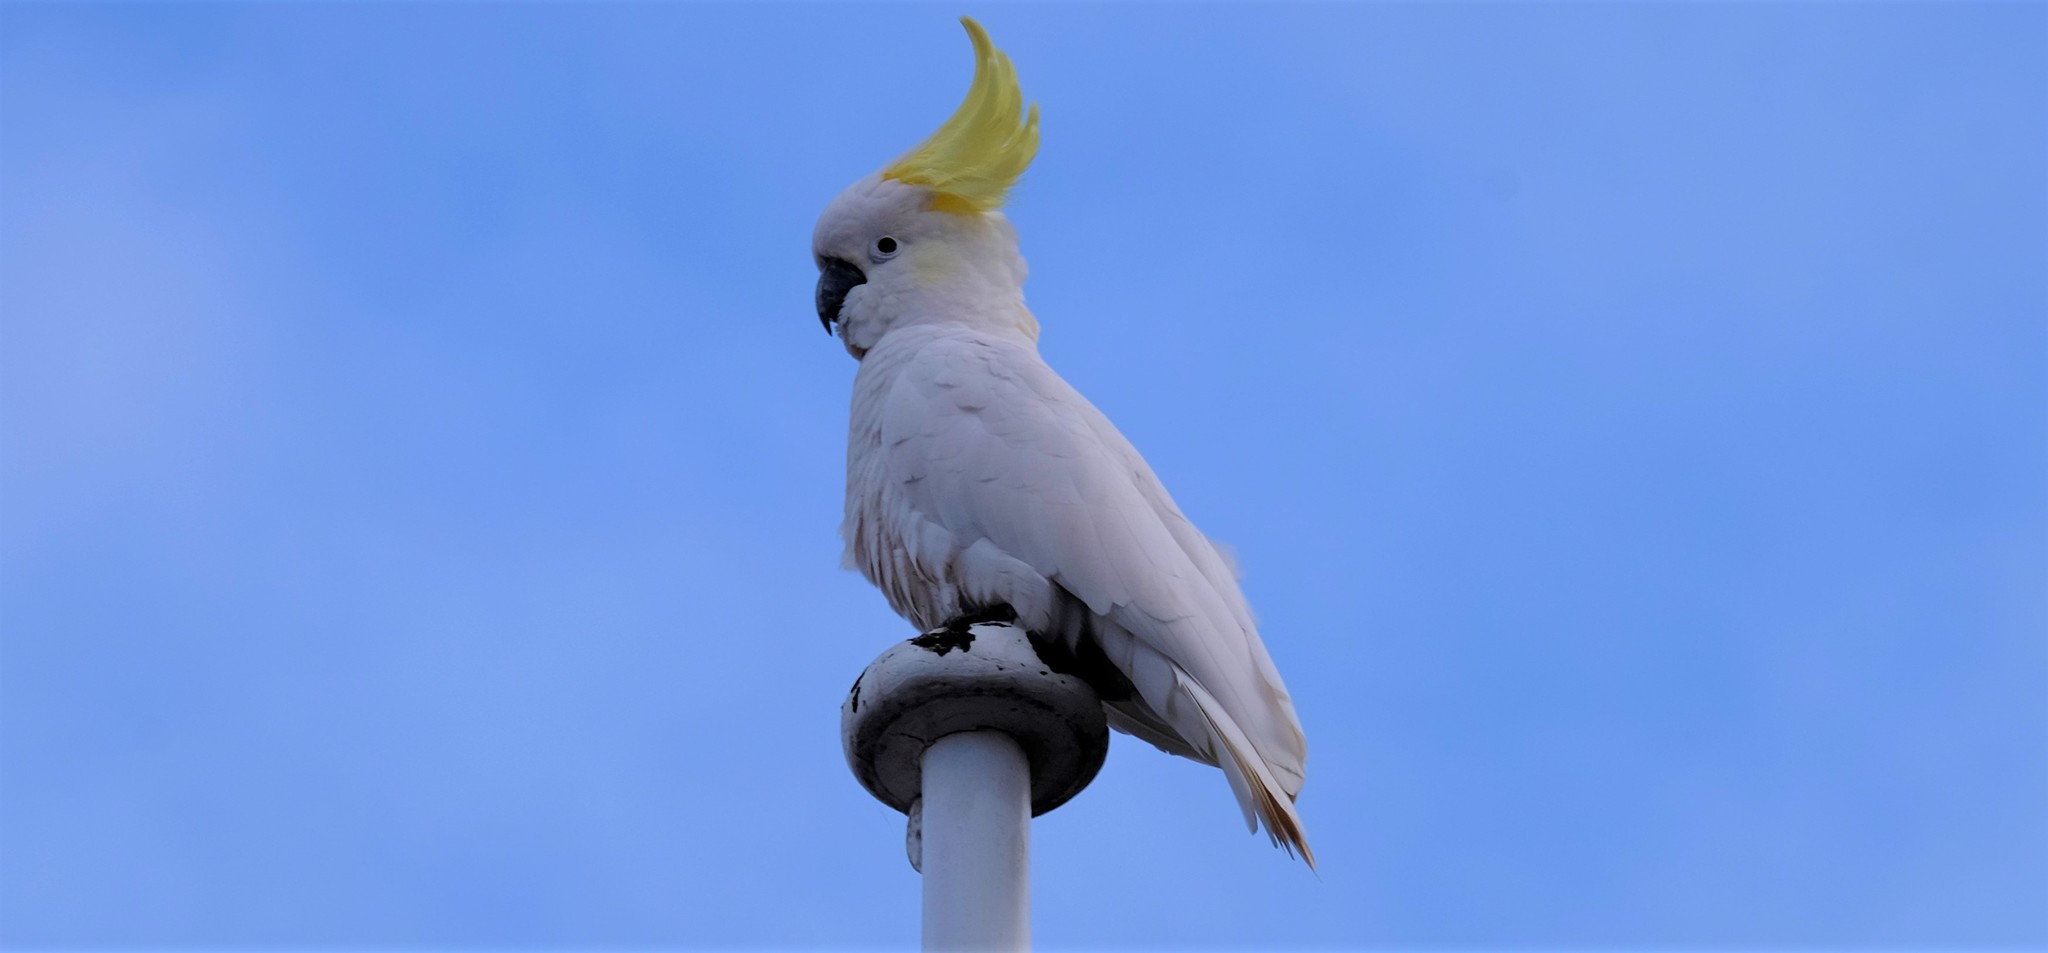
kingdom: Animalia
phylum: Chordata
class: Aves
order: Psittaciformes
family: Psittacidae
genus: Cacatua
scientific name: Cacatua galerita
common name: Sulphur-crested cockatoo
